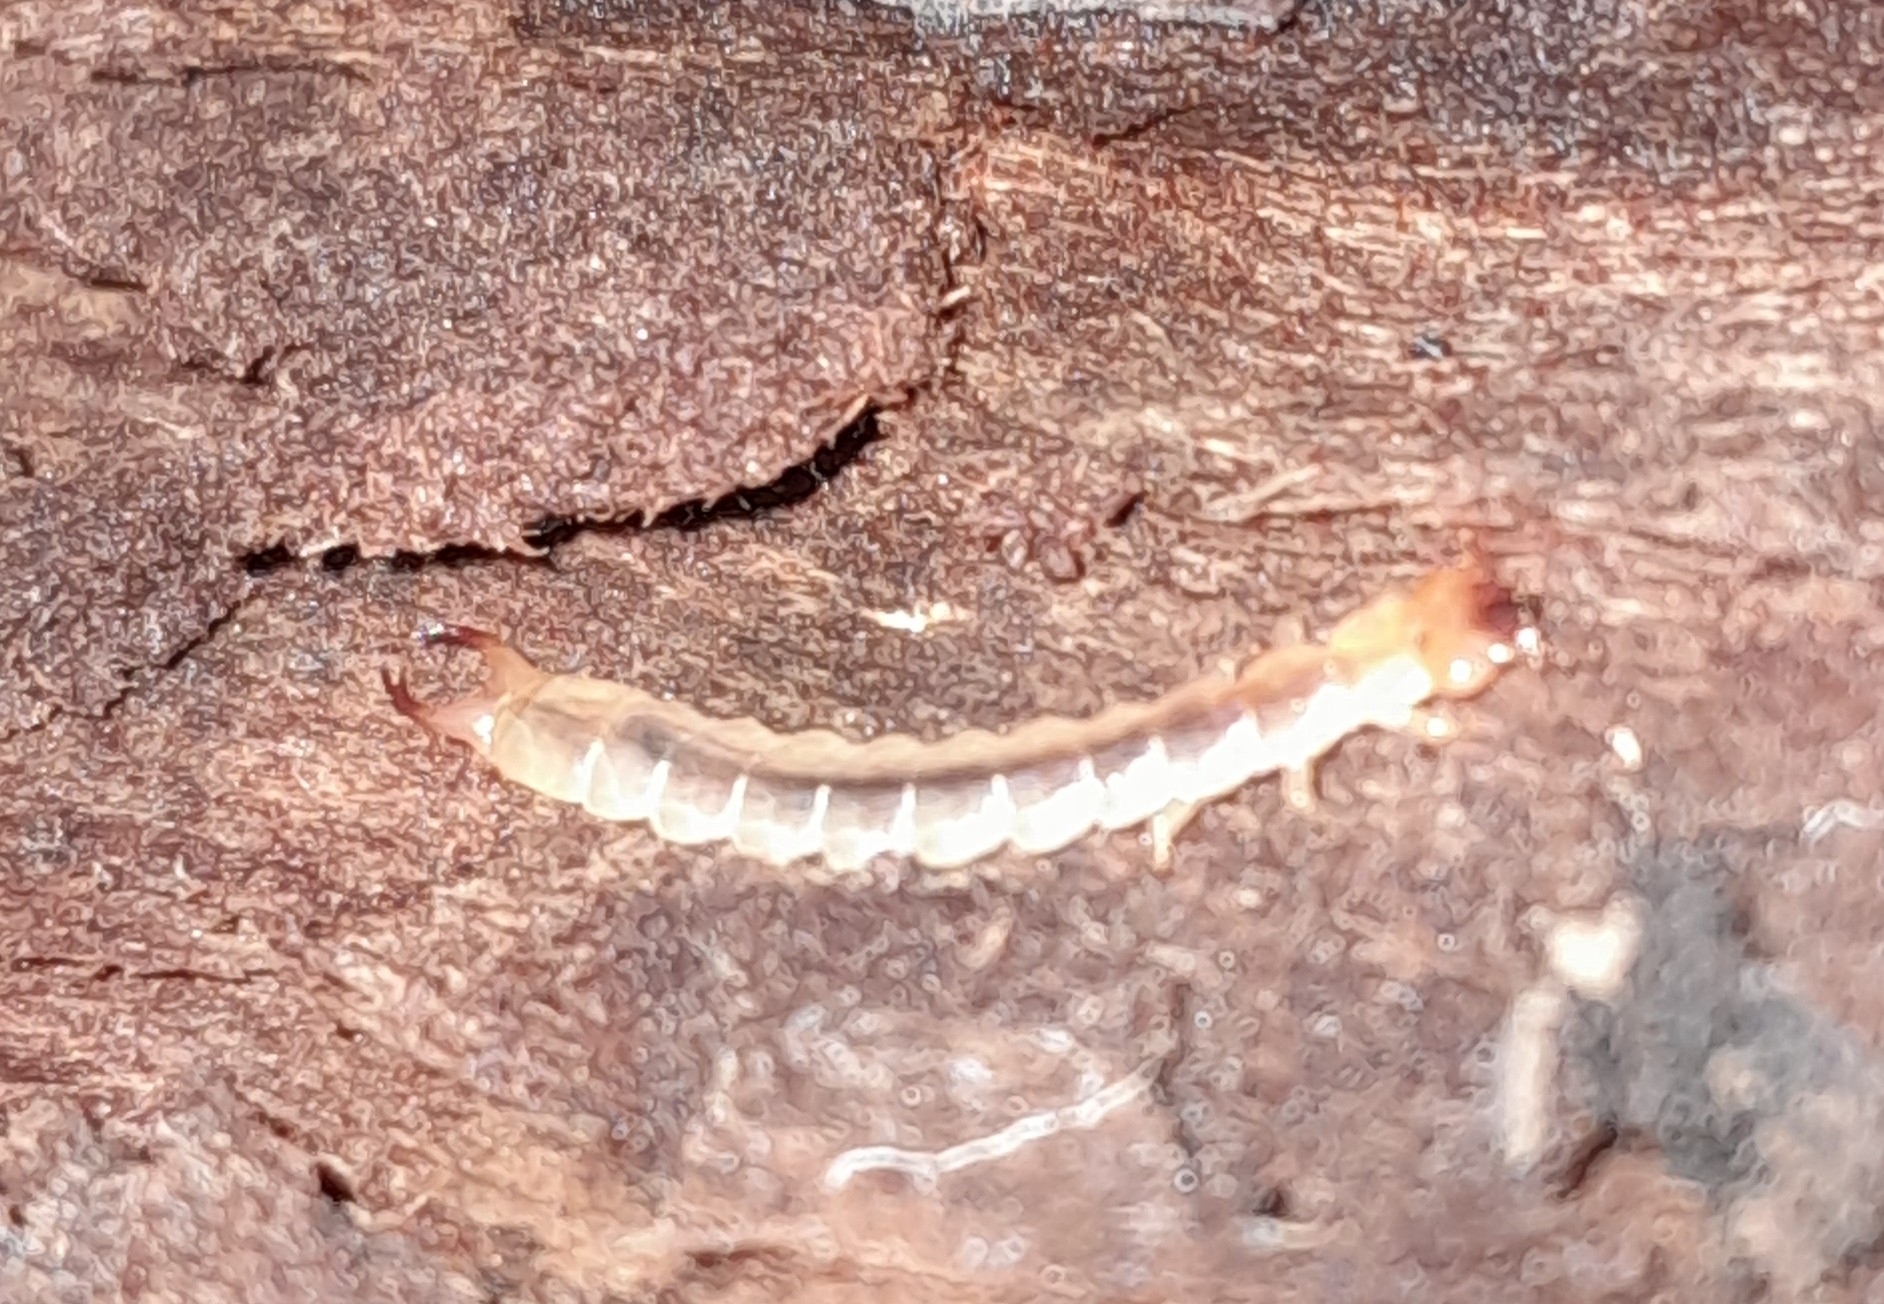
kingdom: Animalia
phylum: Arthropoda
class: Insecta
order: Coleoptera
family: Pyrochroidae
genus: Schizotus
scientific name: Schizotus pectinicornis
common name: Scarce cardinal beetle
